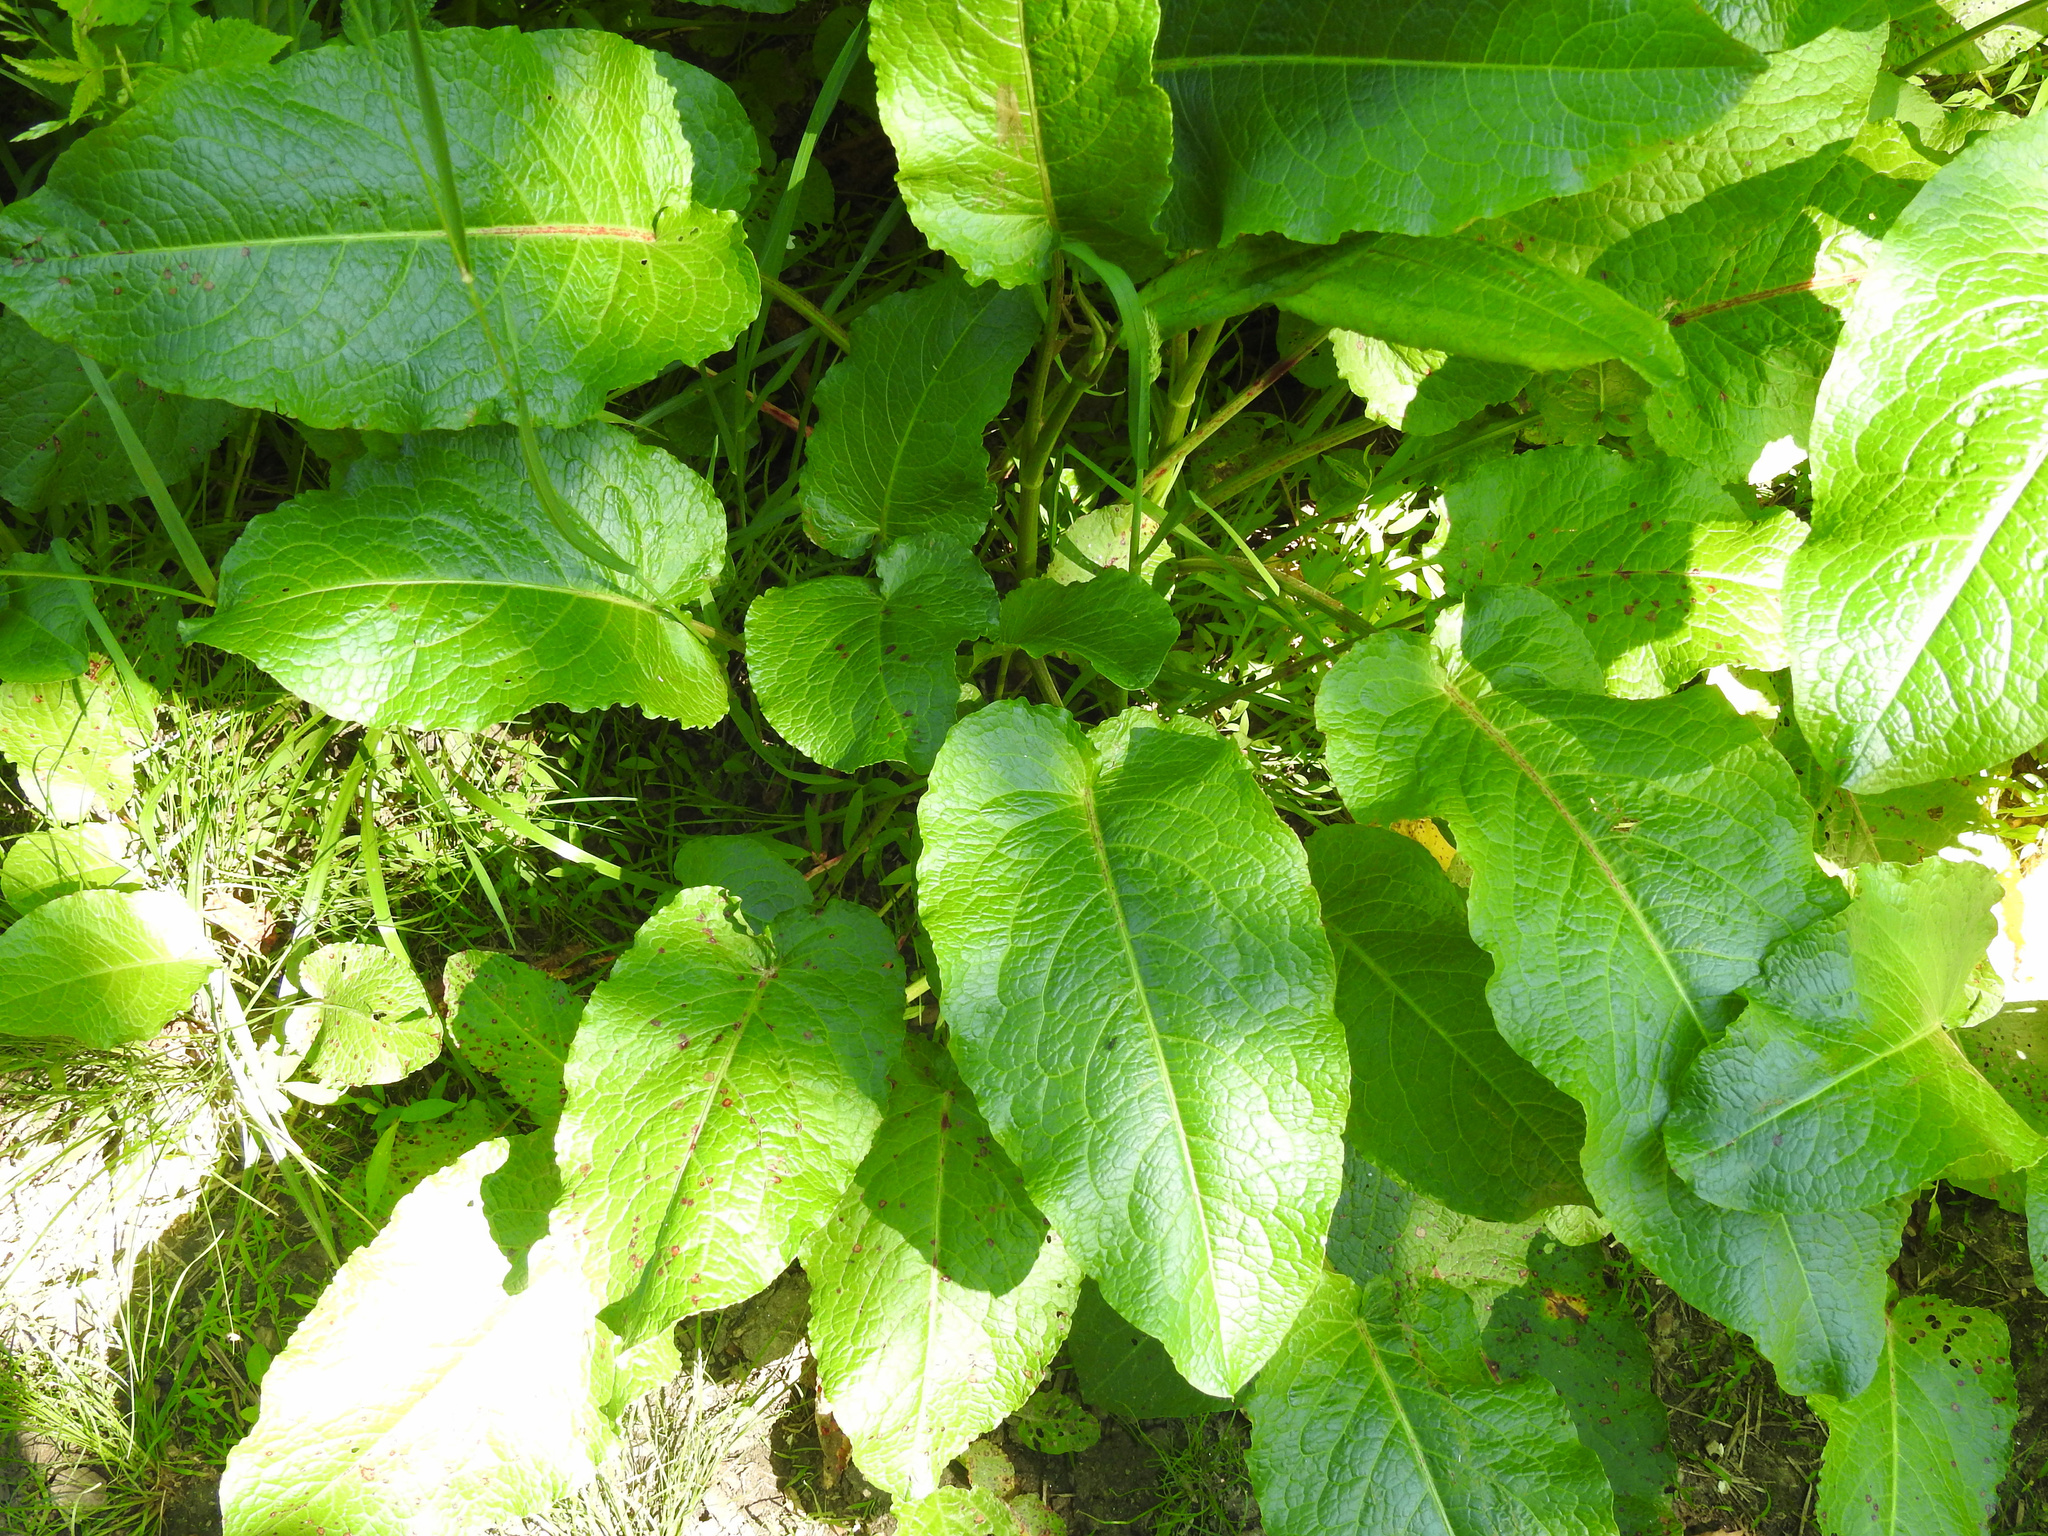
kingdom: Plantae
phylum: Tracheophyta
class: Magnoliopsida
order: Caryophyllales
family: Polygonaceae
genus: Rumex
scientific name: Rumex obtusifolius
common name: Bitter dock
